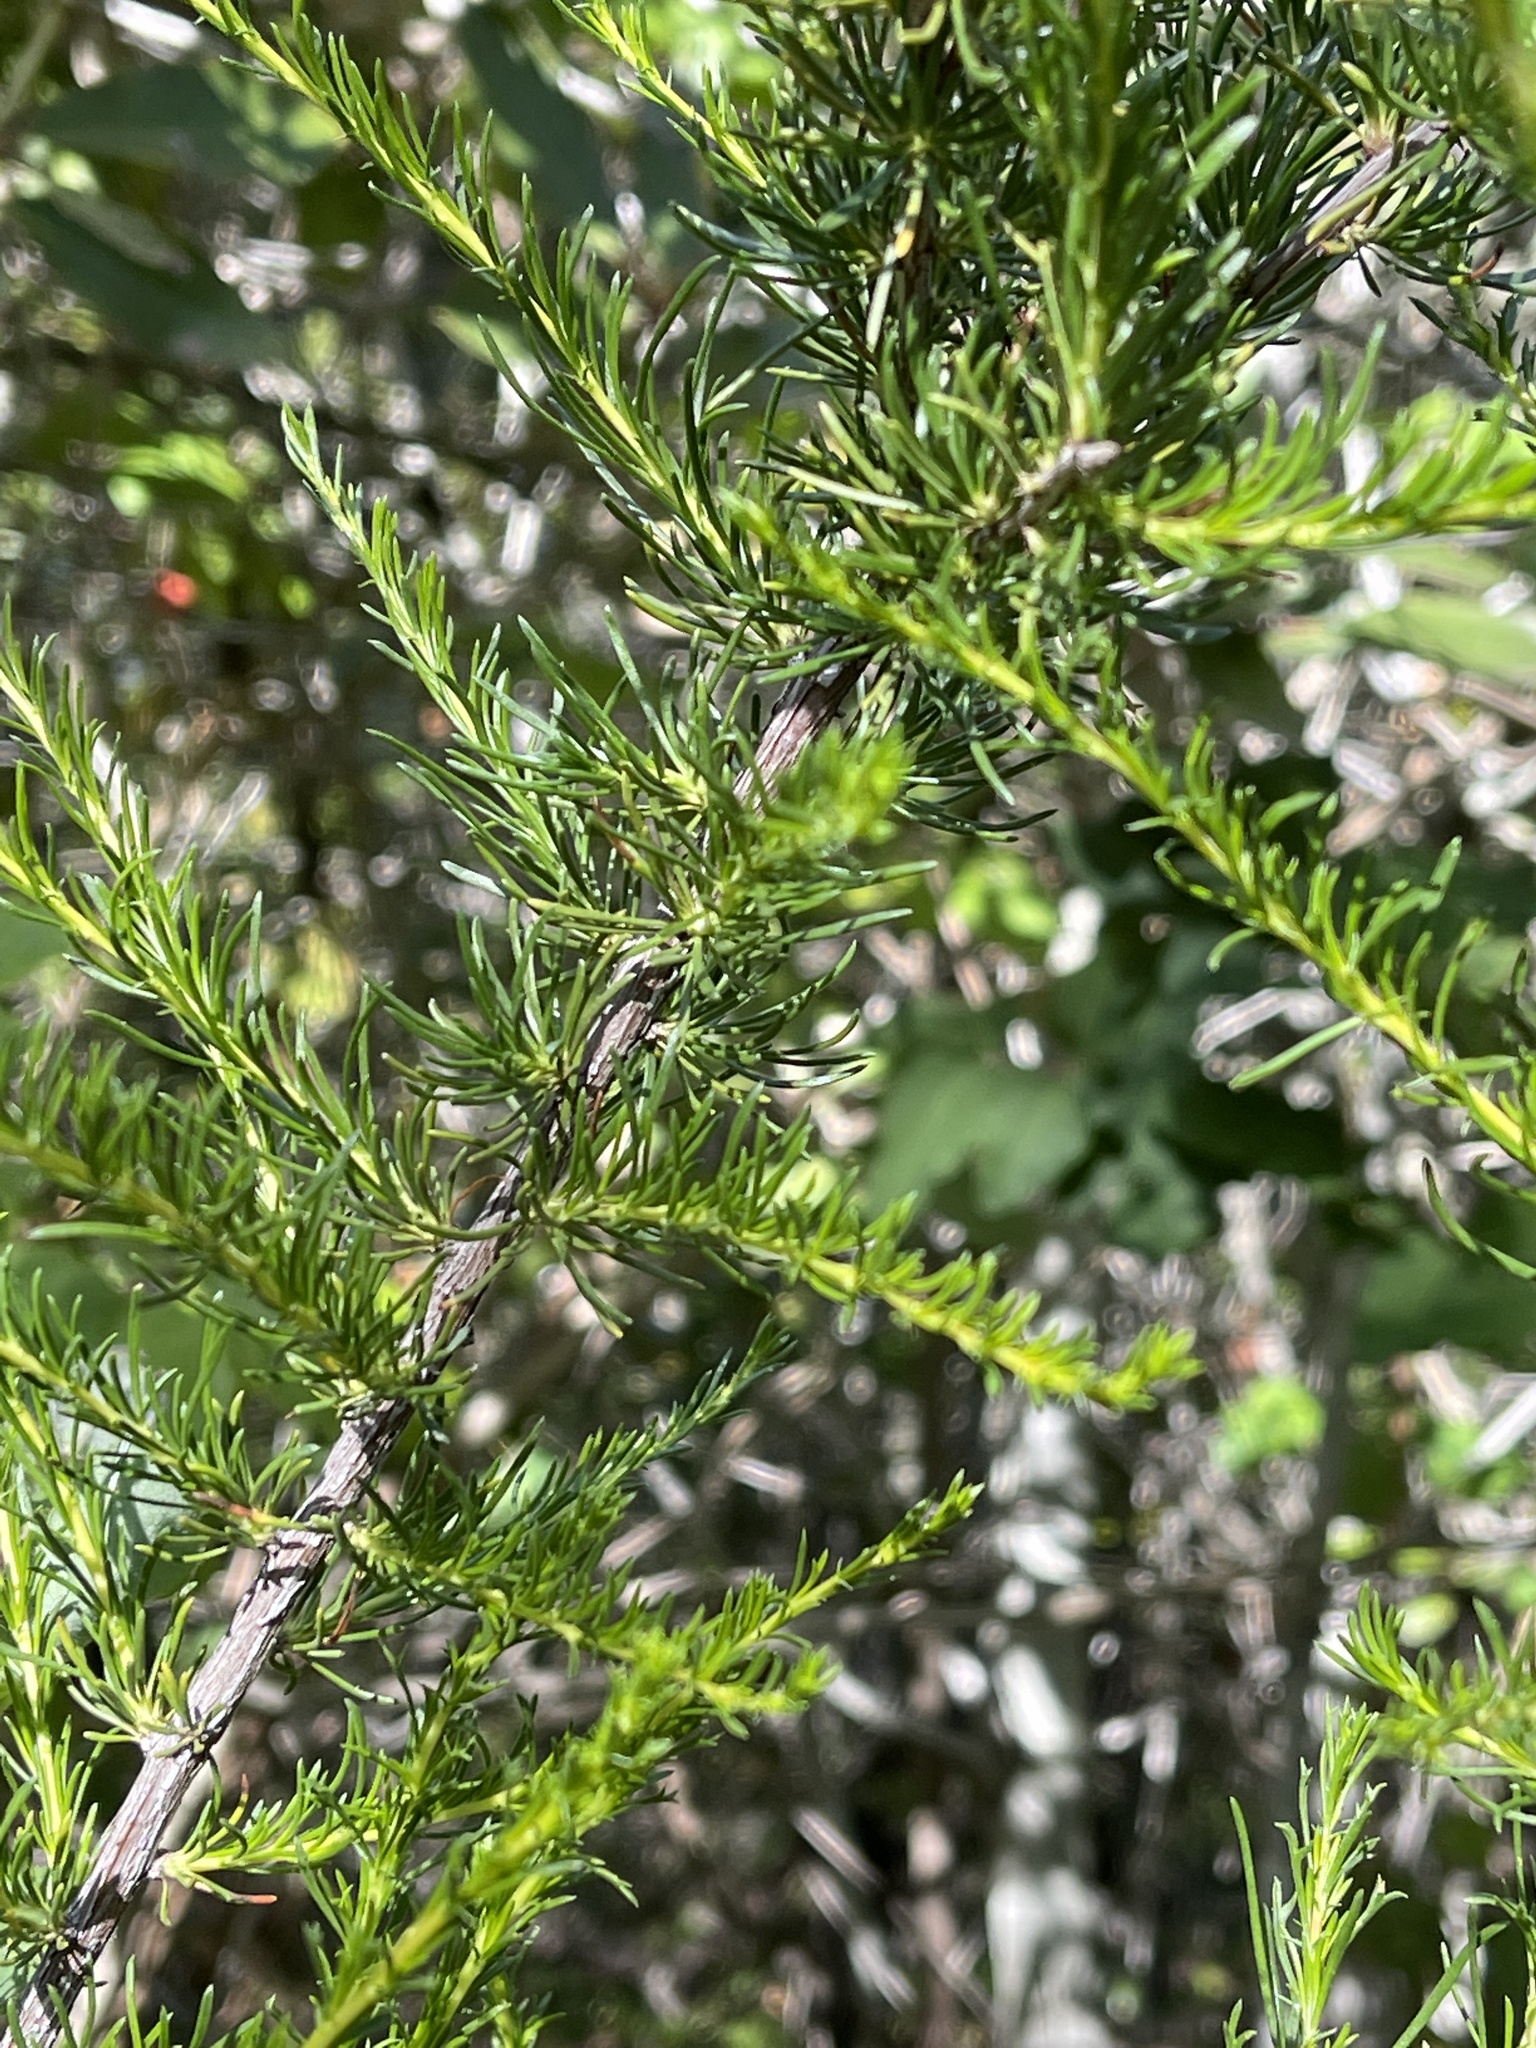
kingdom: Plantae
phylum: Tracheophyta
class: Magnoliopsida
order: Rosales
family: Rosaceae
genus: Adenostoma
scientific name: Adenostoma fasciculatum
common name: Chamise
